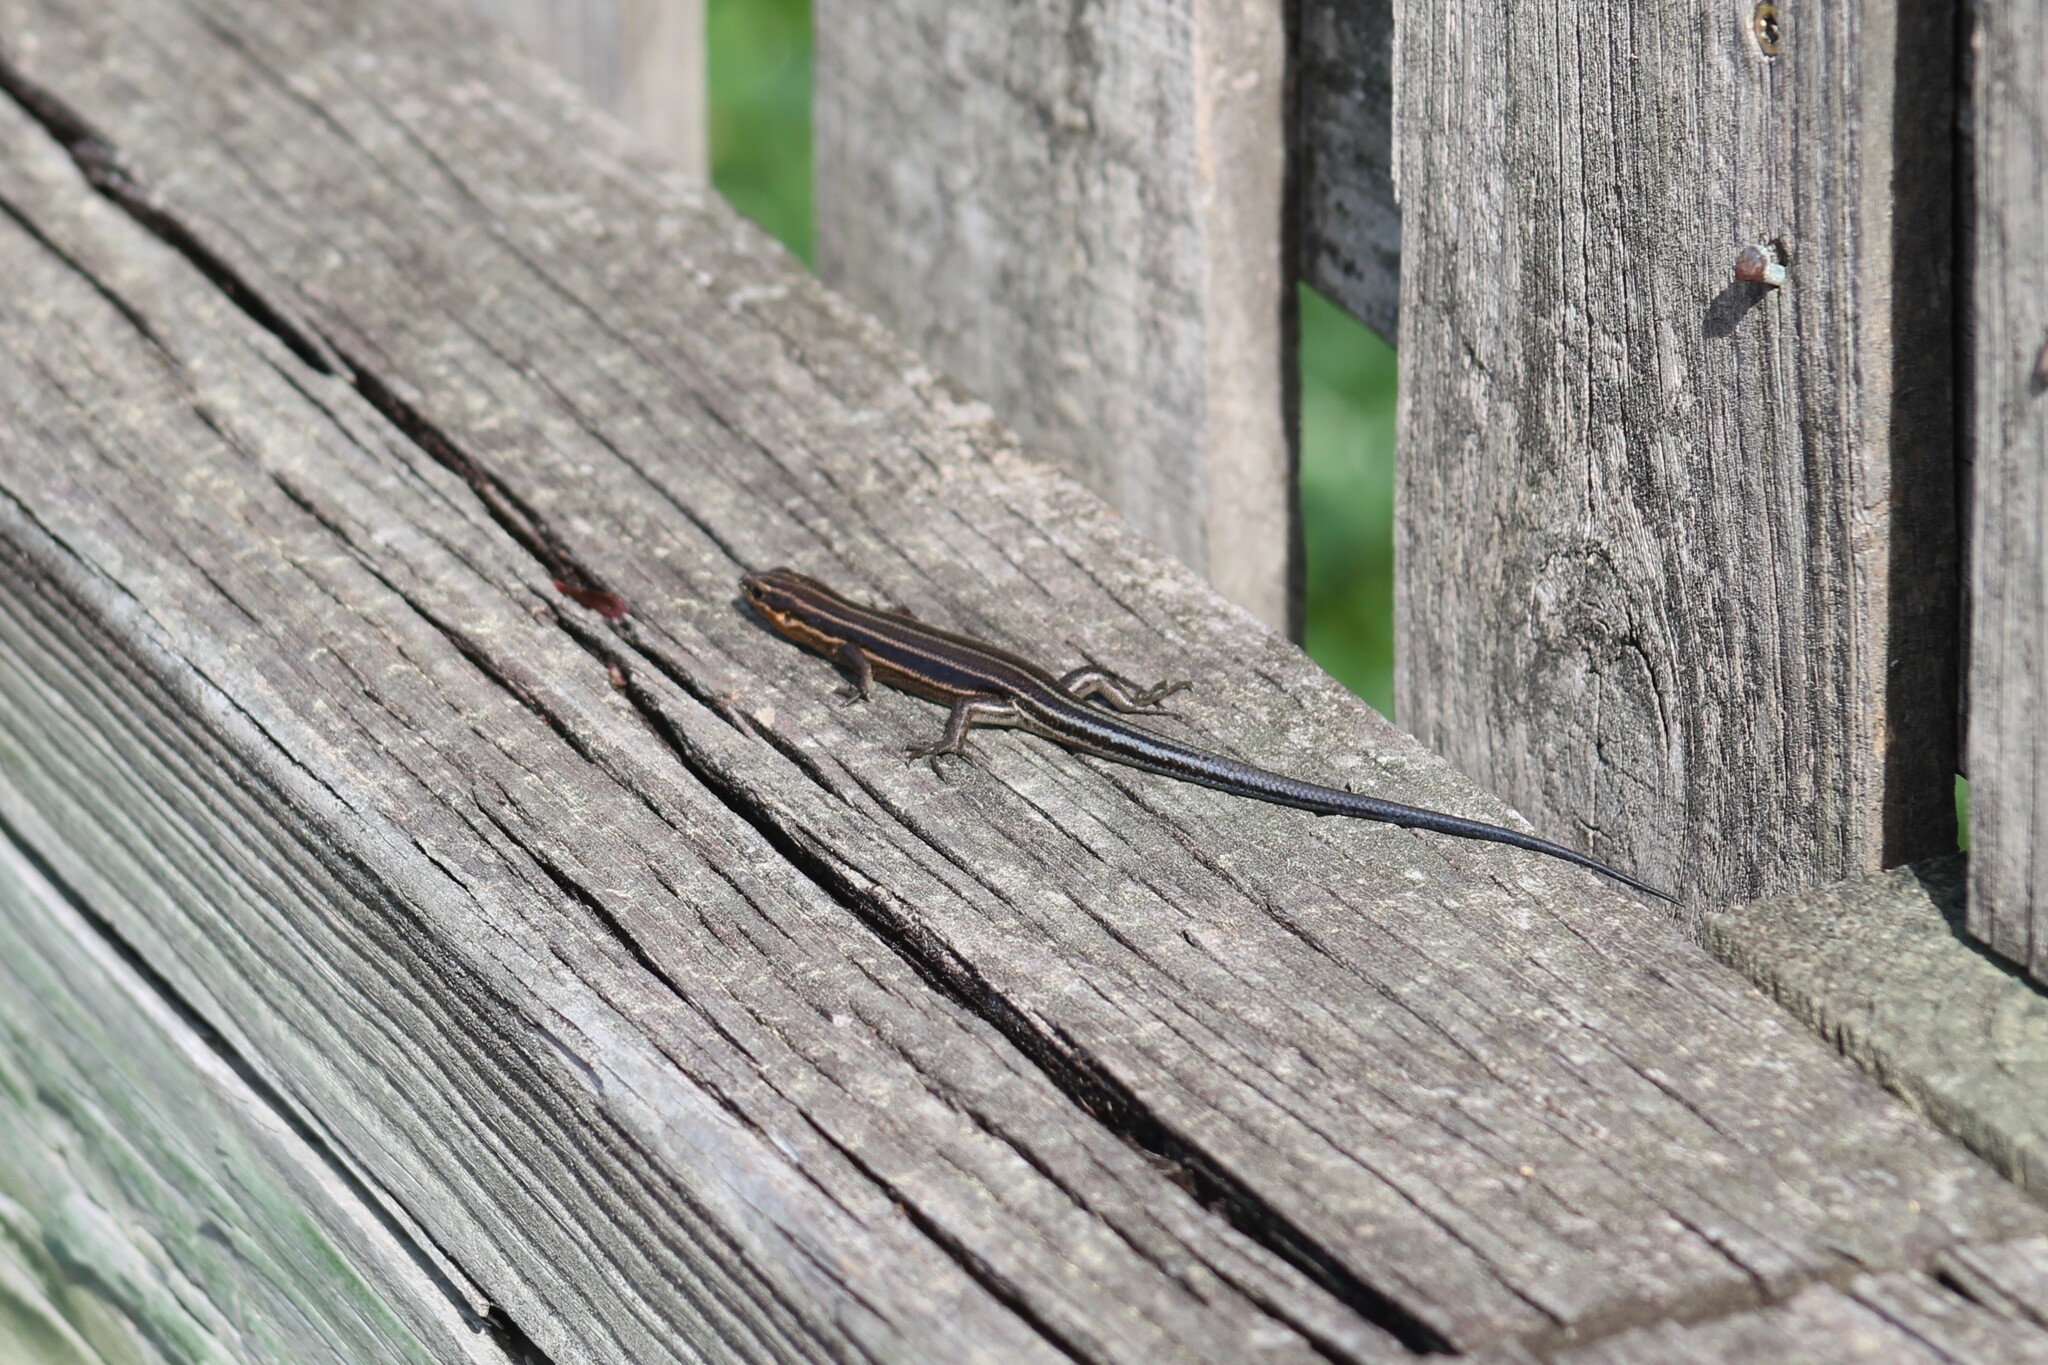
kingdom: Animalia
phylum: Chordata
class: Squamata
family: Scincidae
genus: Plestiodon
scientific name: Plestiodon fasciatus
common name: Five-lined skink
